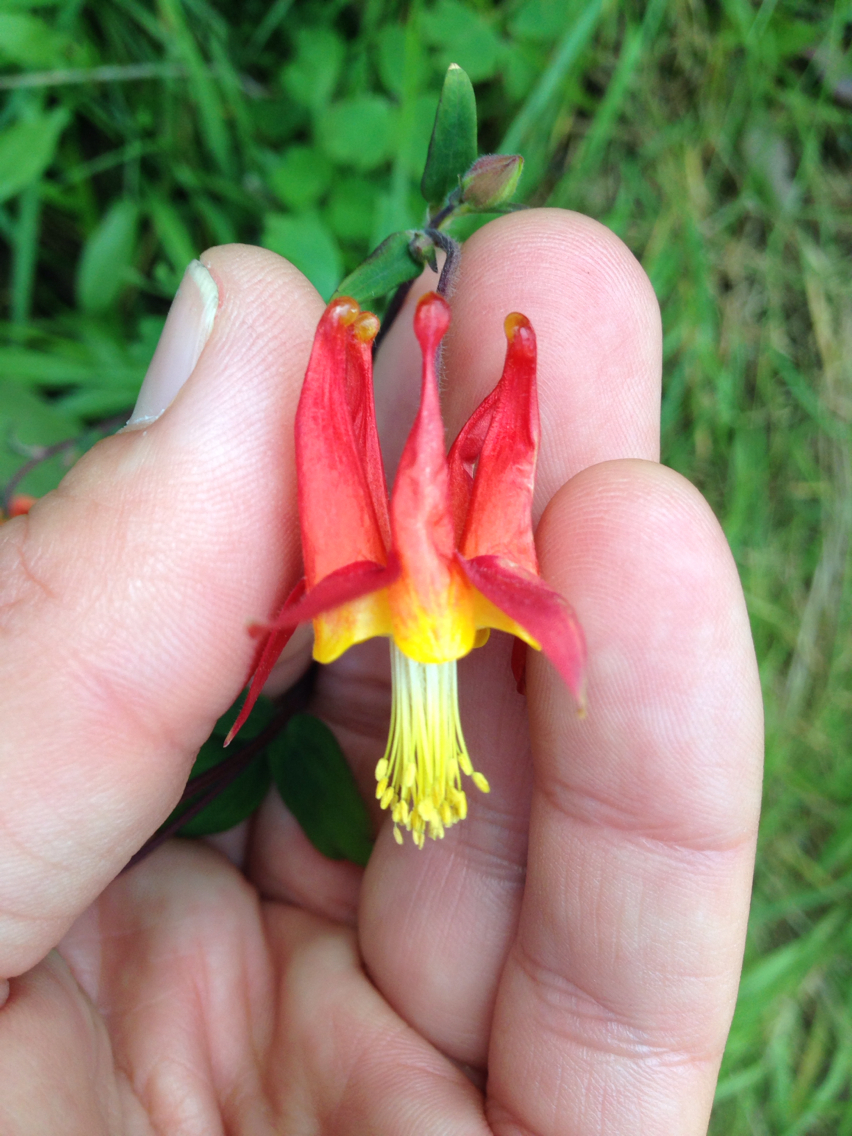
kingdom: Plantae
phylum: Tracheophyta
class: Magnoliopsida
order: Ranunculales
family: Ranunculaceae
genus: Aquilegia
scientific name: Aquilegia formosa
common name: Sitka columbine
